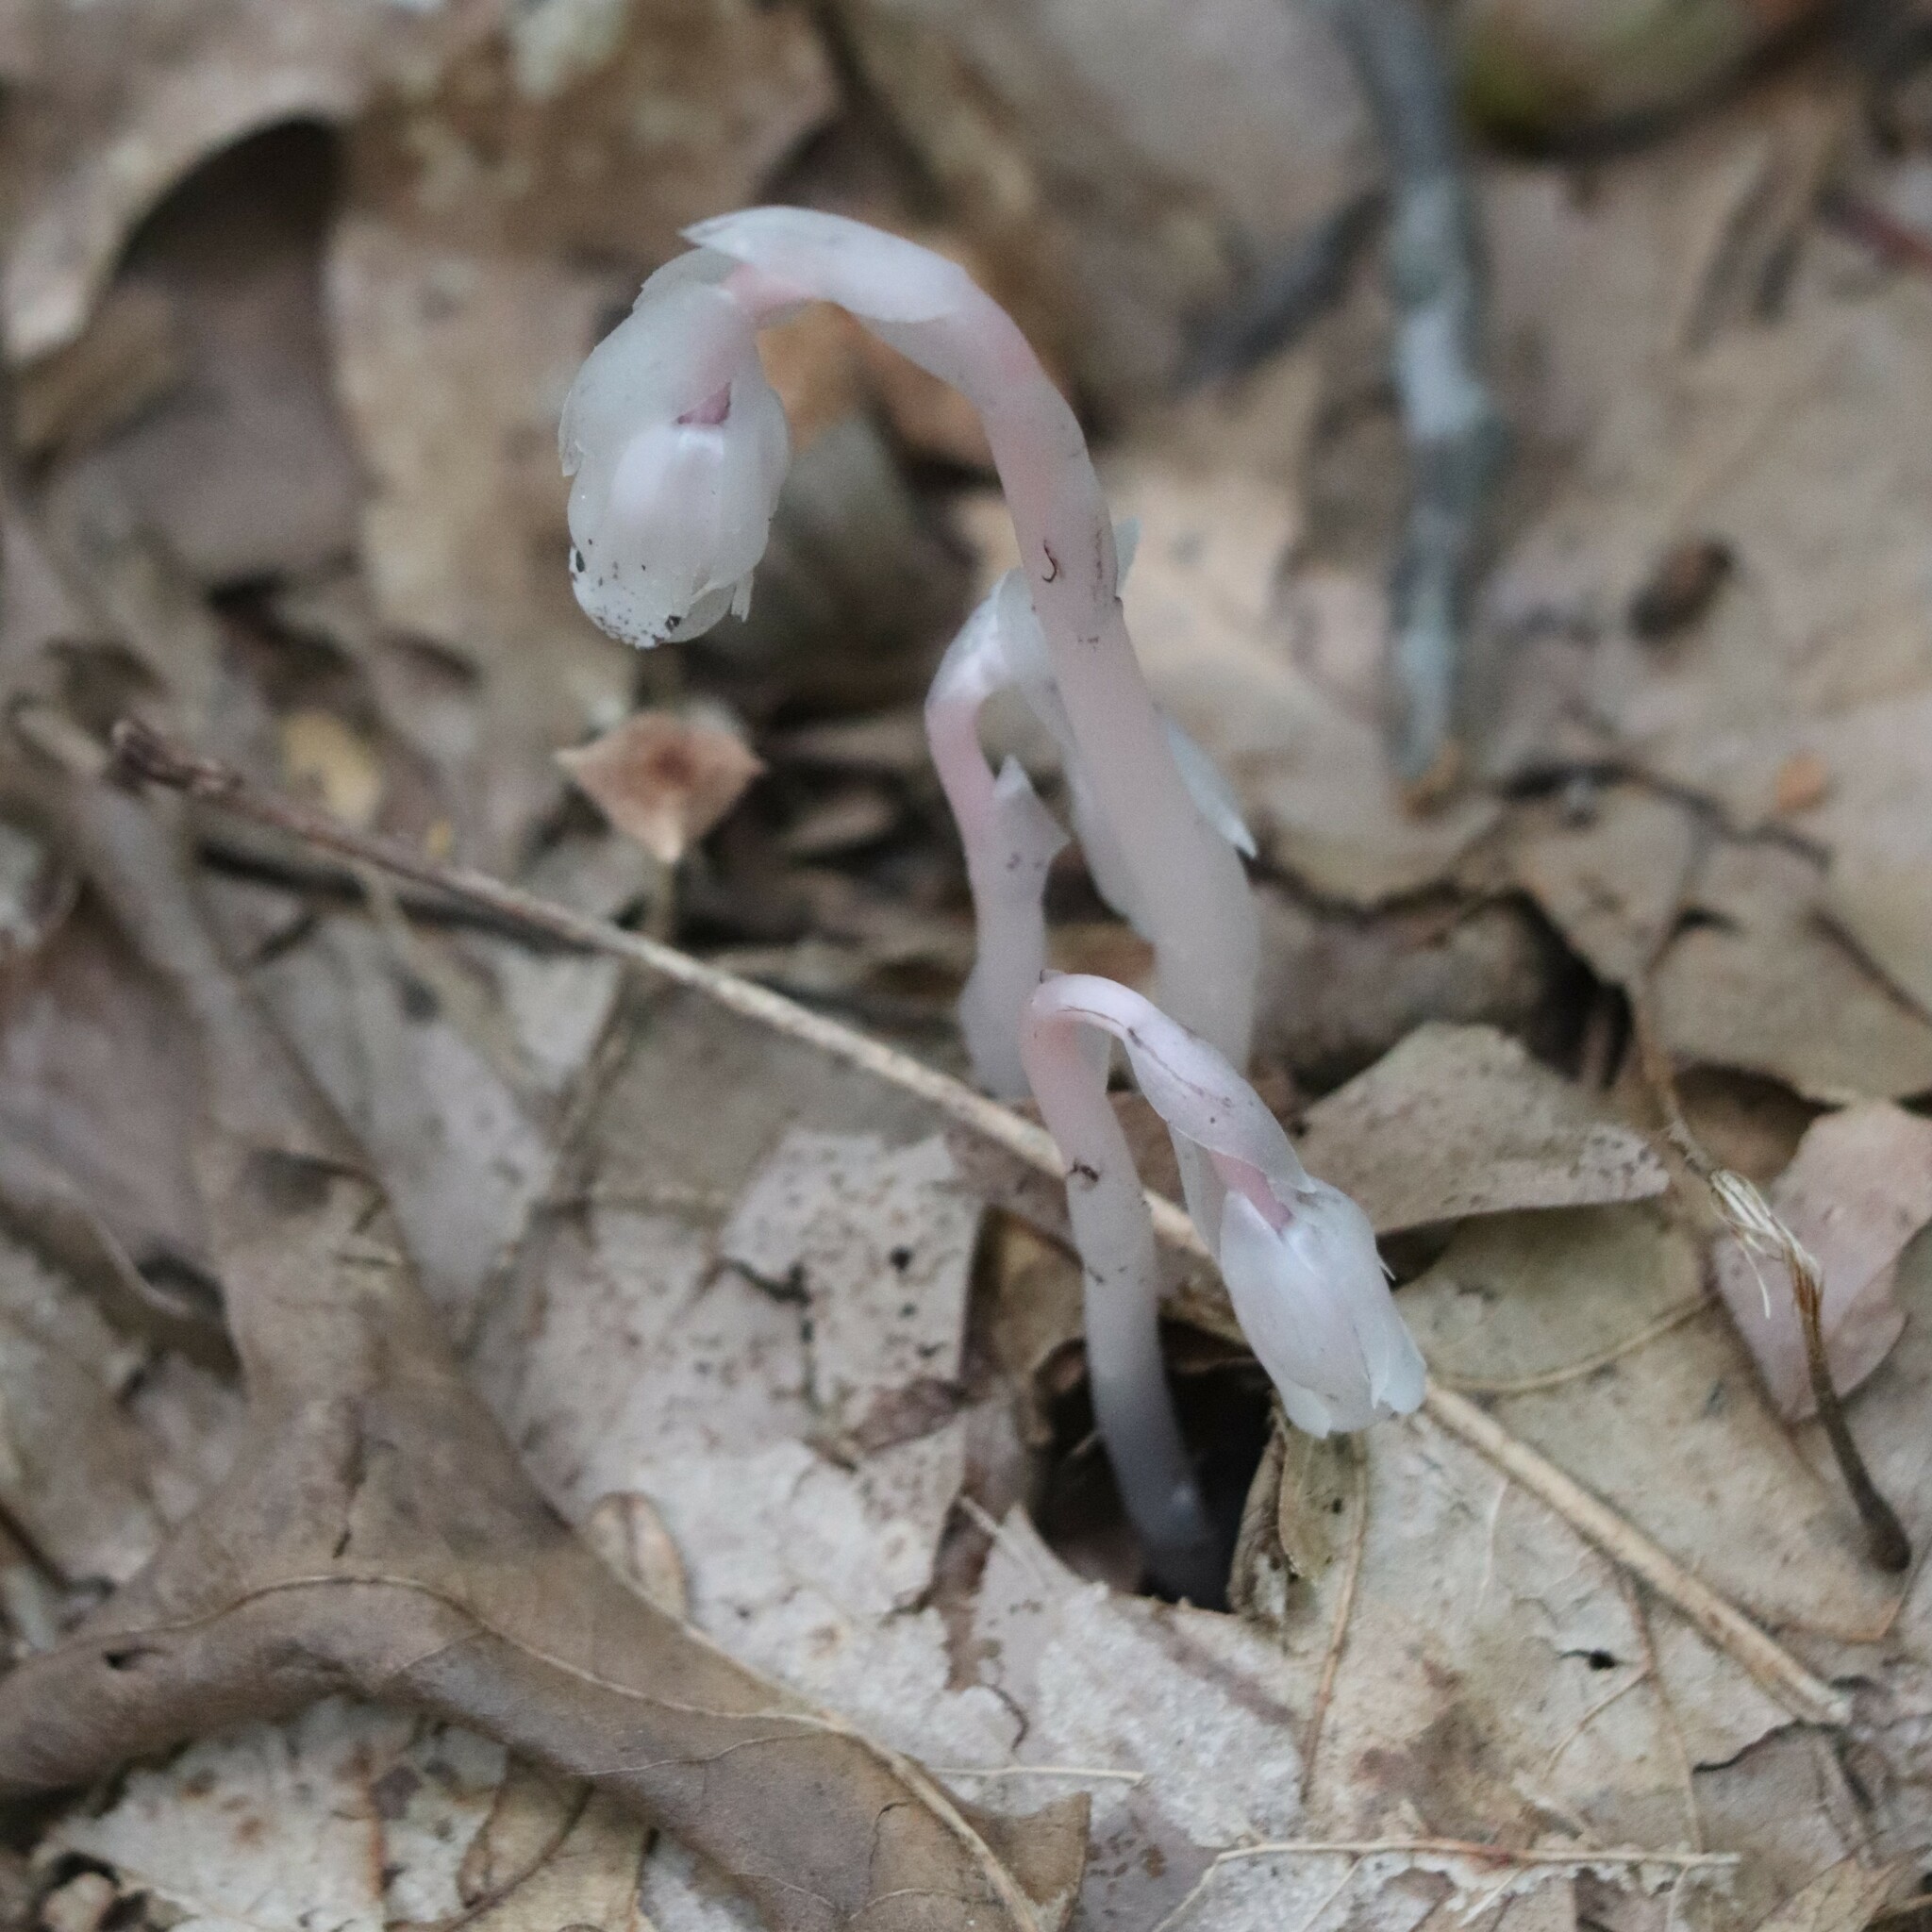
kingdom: Plantae
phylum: Tracheophyta
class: Magnoliopsida
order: Ericales
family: Ericaceae
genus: Monotropa
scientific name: Monotropa uniflora
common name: Convulsion root
